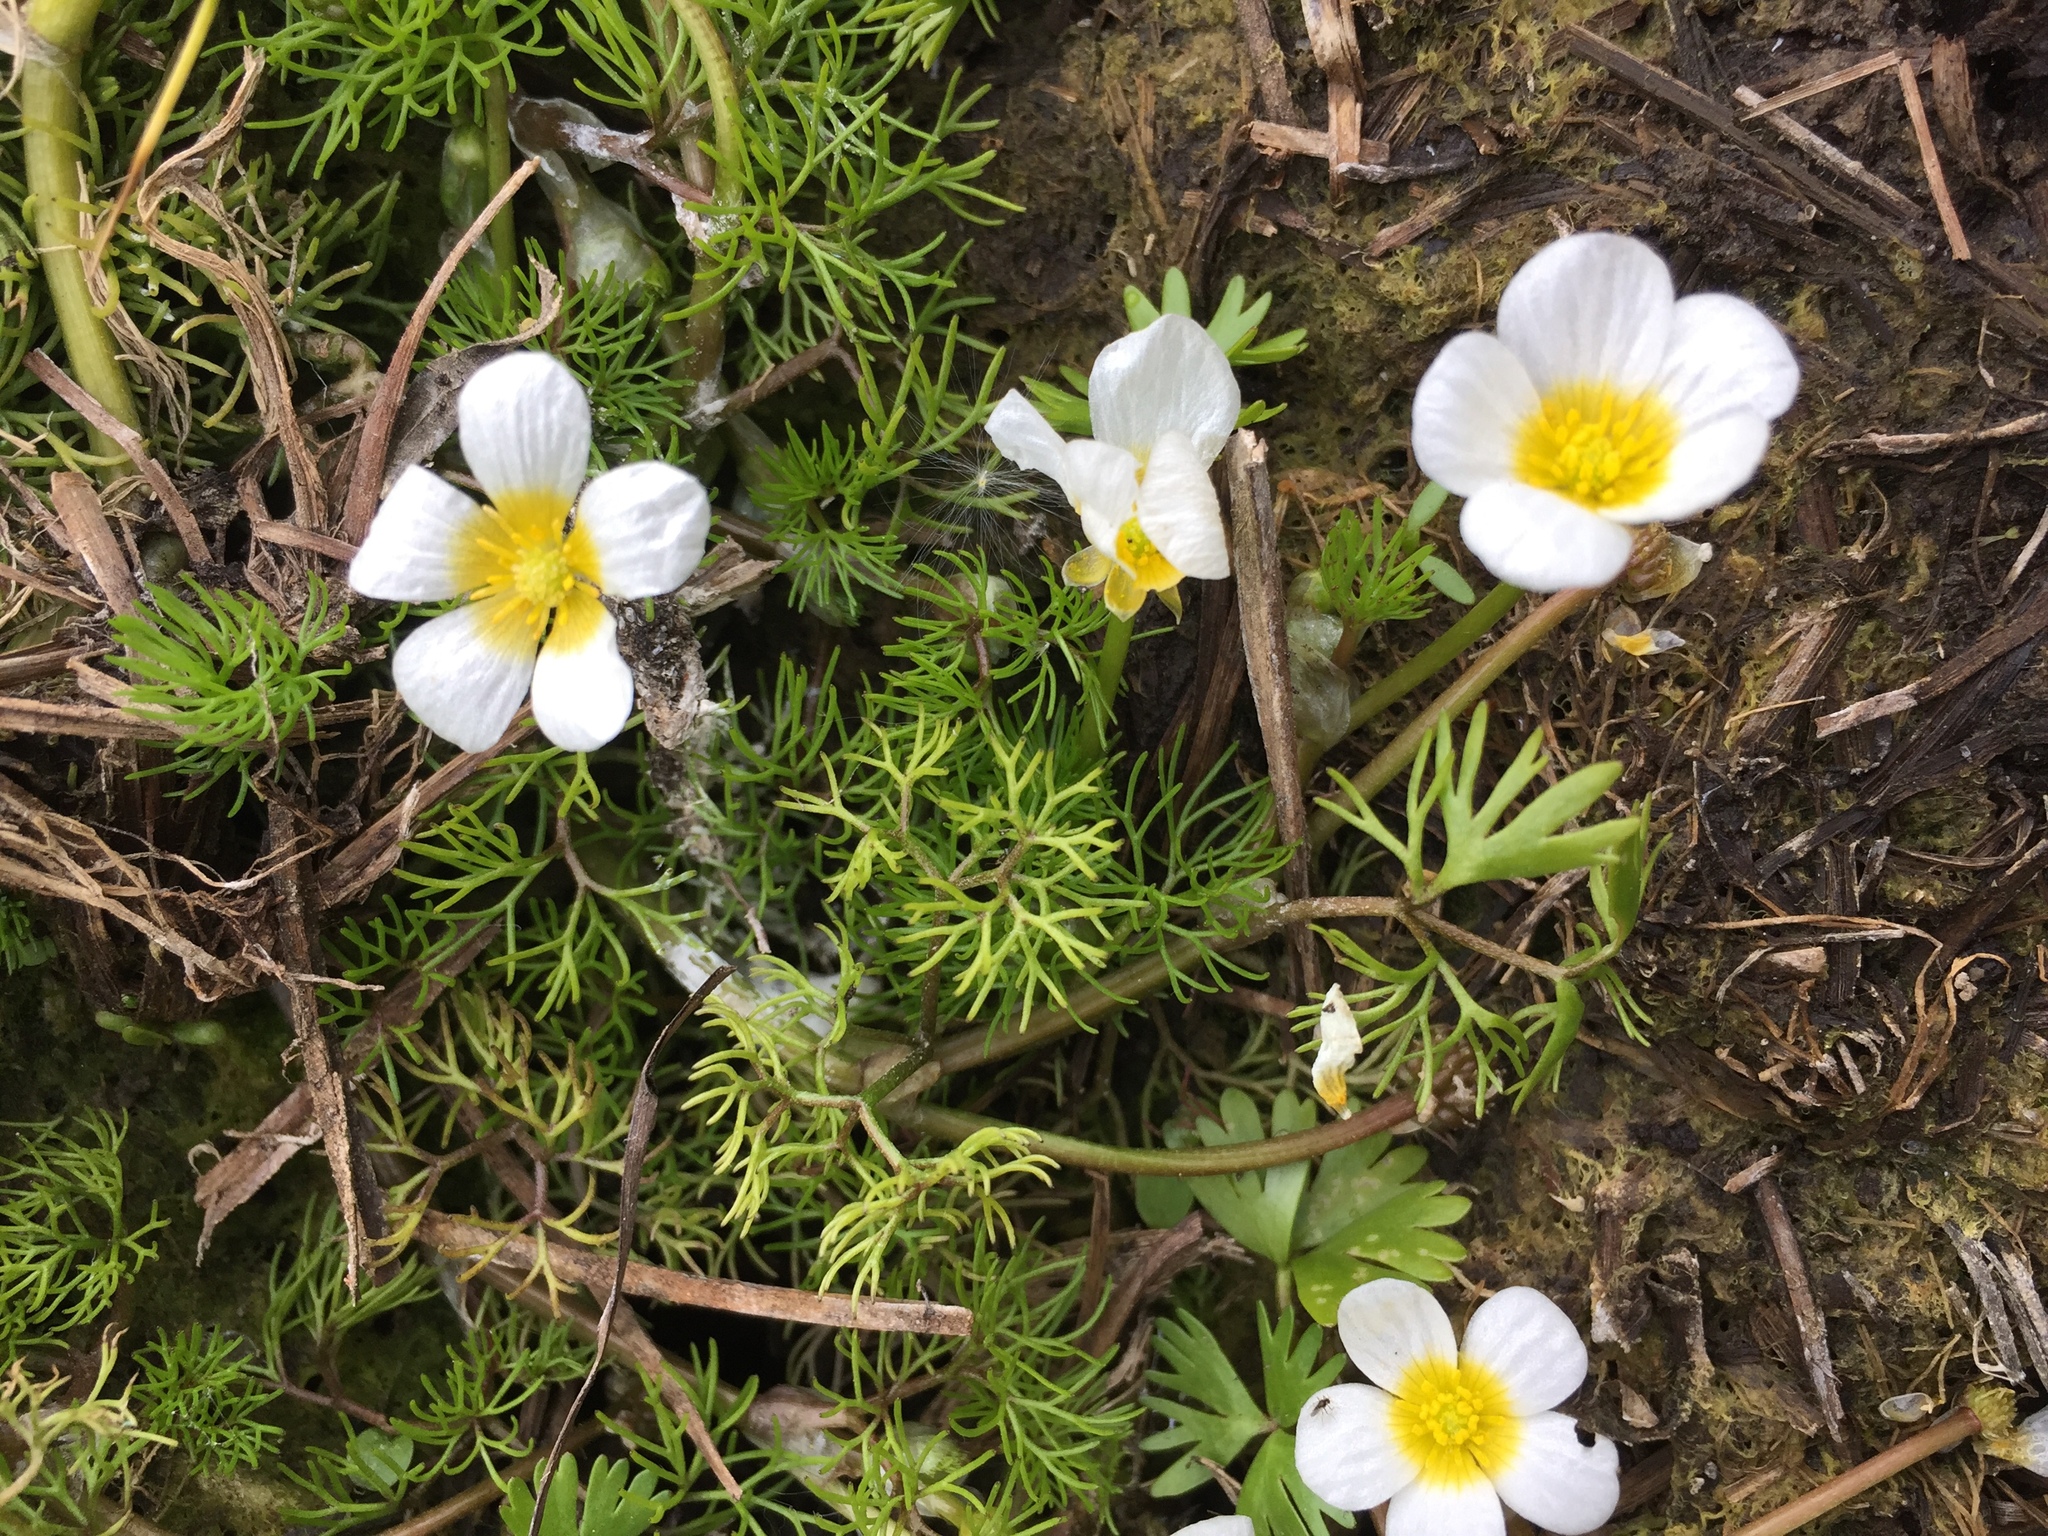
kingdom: Plantae
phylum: Tracheophyta
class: Magnoliopsida
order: Ranunculales
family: Ranunculaceae
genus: Ranunculus
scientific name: Ranunculus aquatilis
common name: Common water-crowfoot
